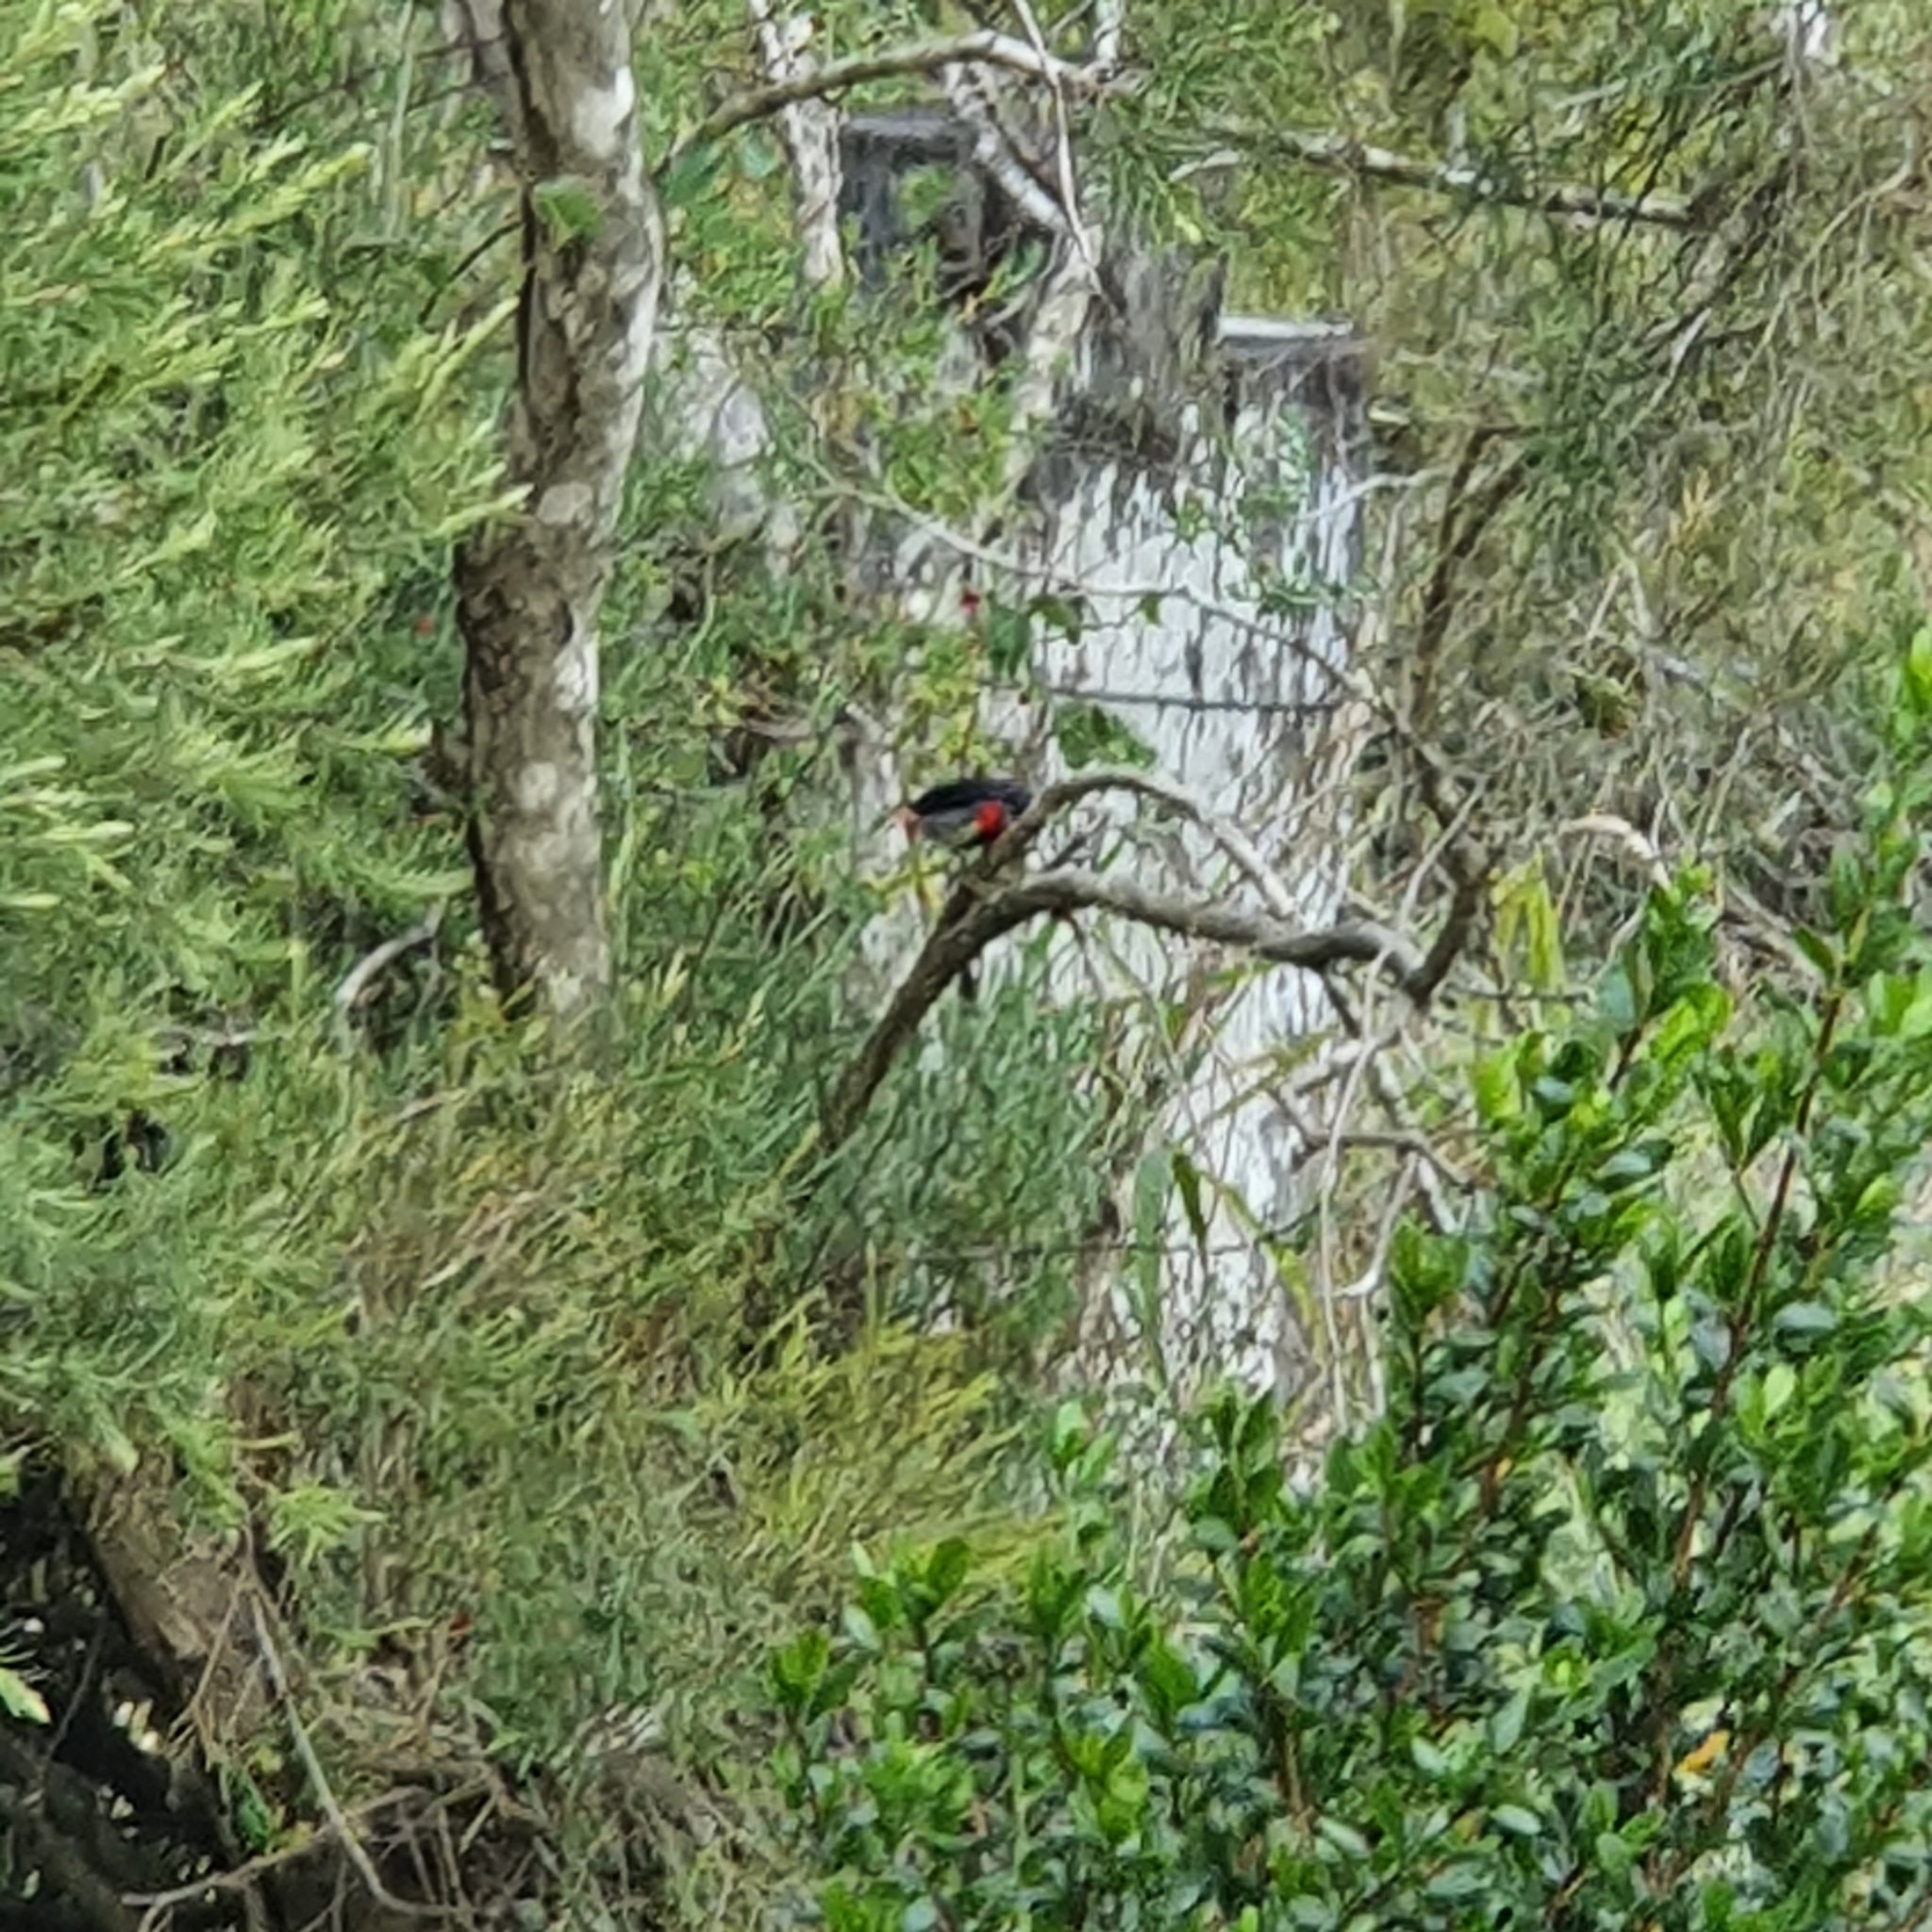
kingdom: Animalia
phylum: Chordata
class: Aves
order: Passeriformes
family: Dicaeidae
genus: Dicaeum
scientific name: Dicaeum hirundinaceum
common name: Mistletoebird
